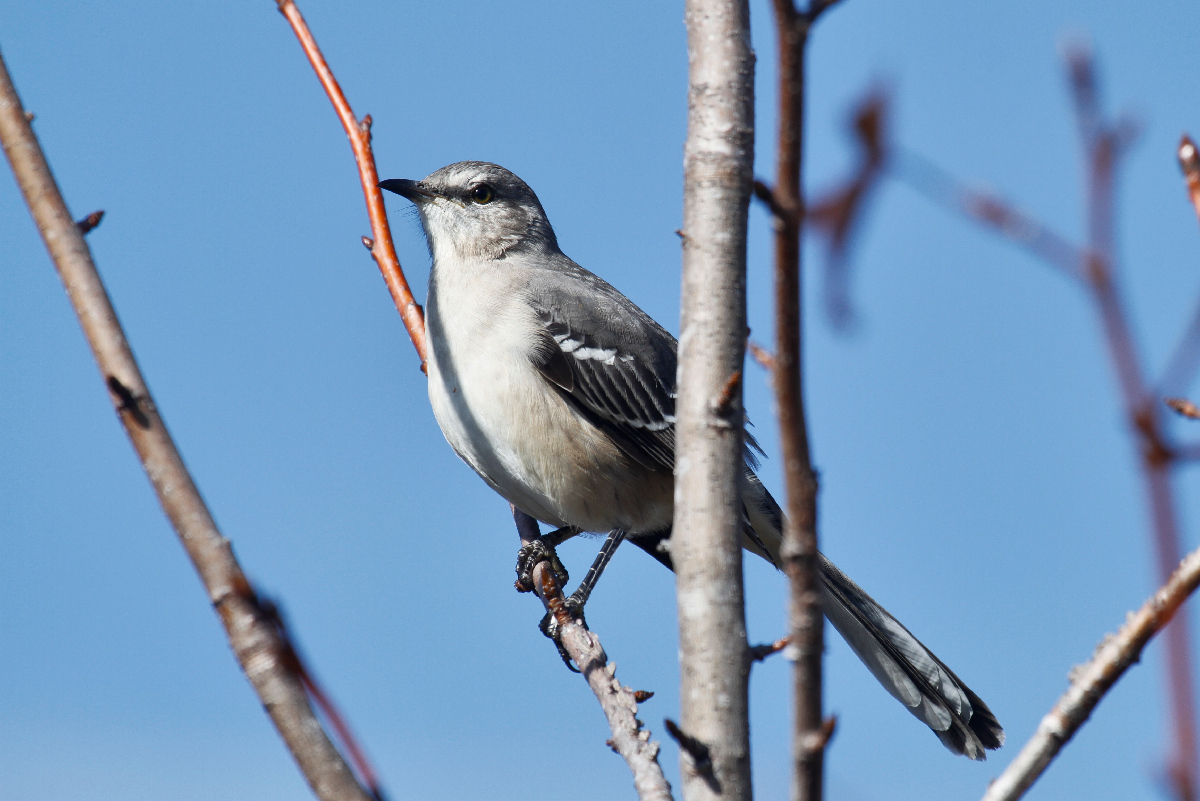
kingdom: Animalia
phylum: Chordata
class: Aves
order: Passeriformes
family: Mimidae
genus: Mimus
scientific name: Mimus polyglottos
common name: Northern mockingbird
